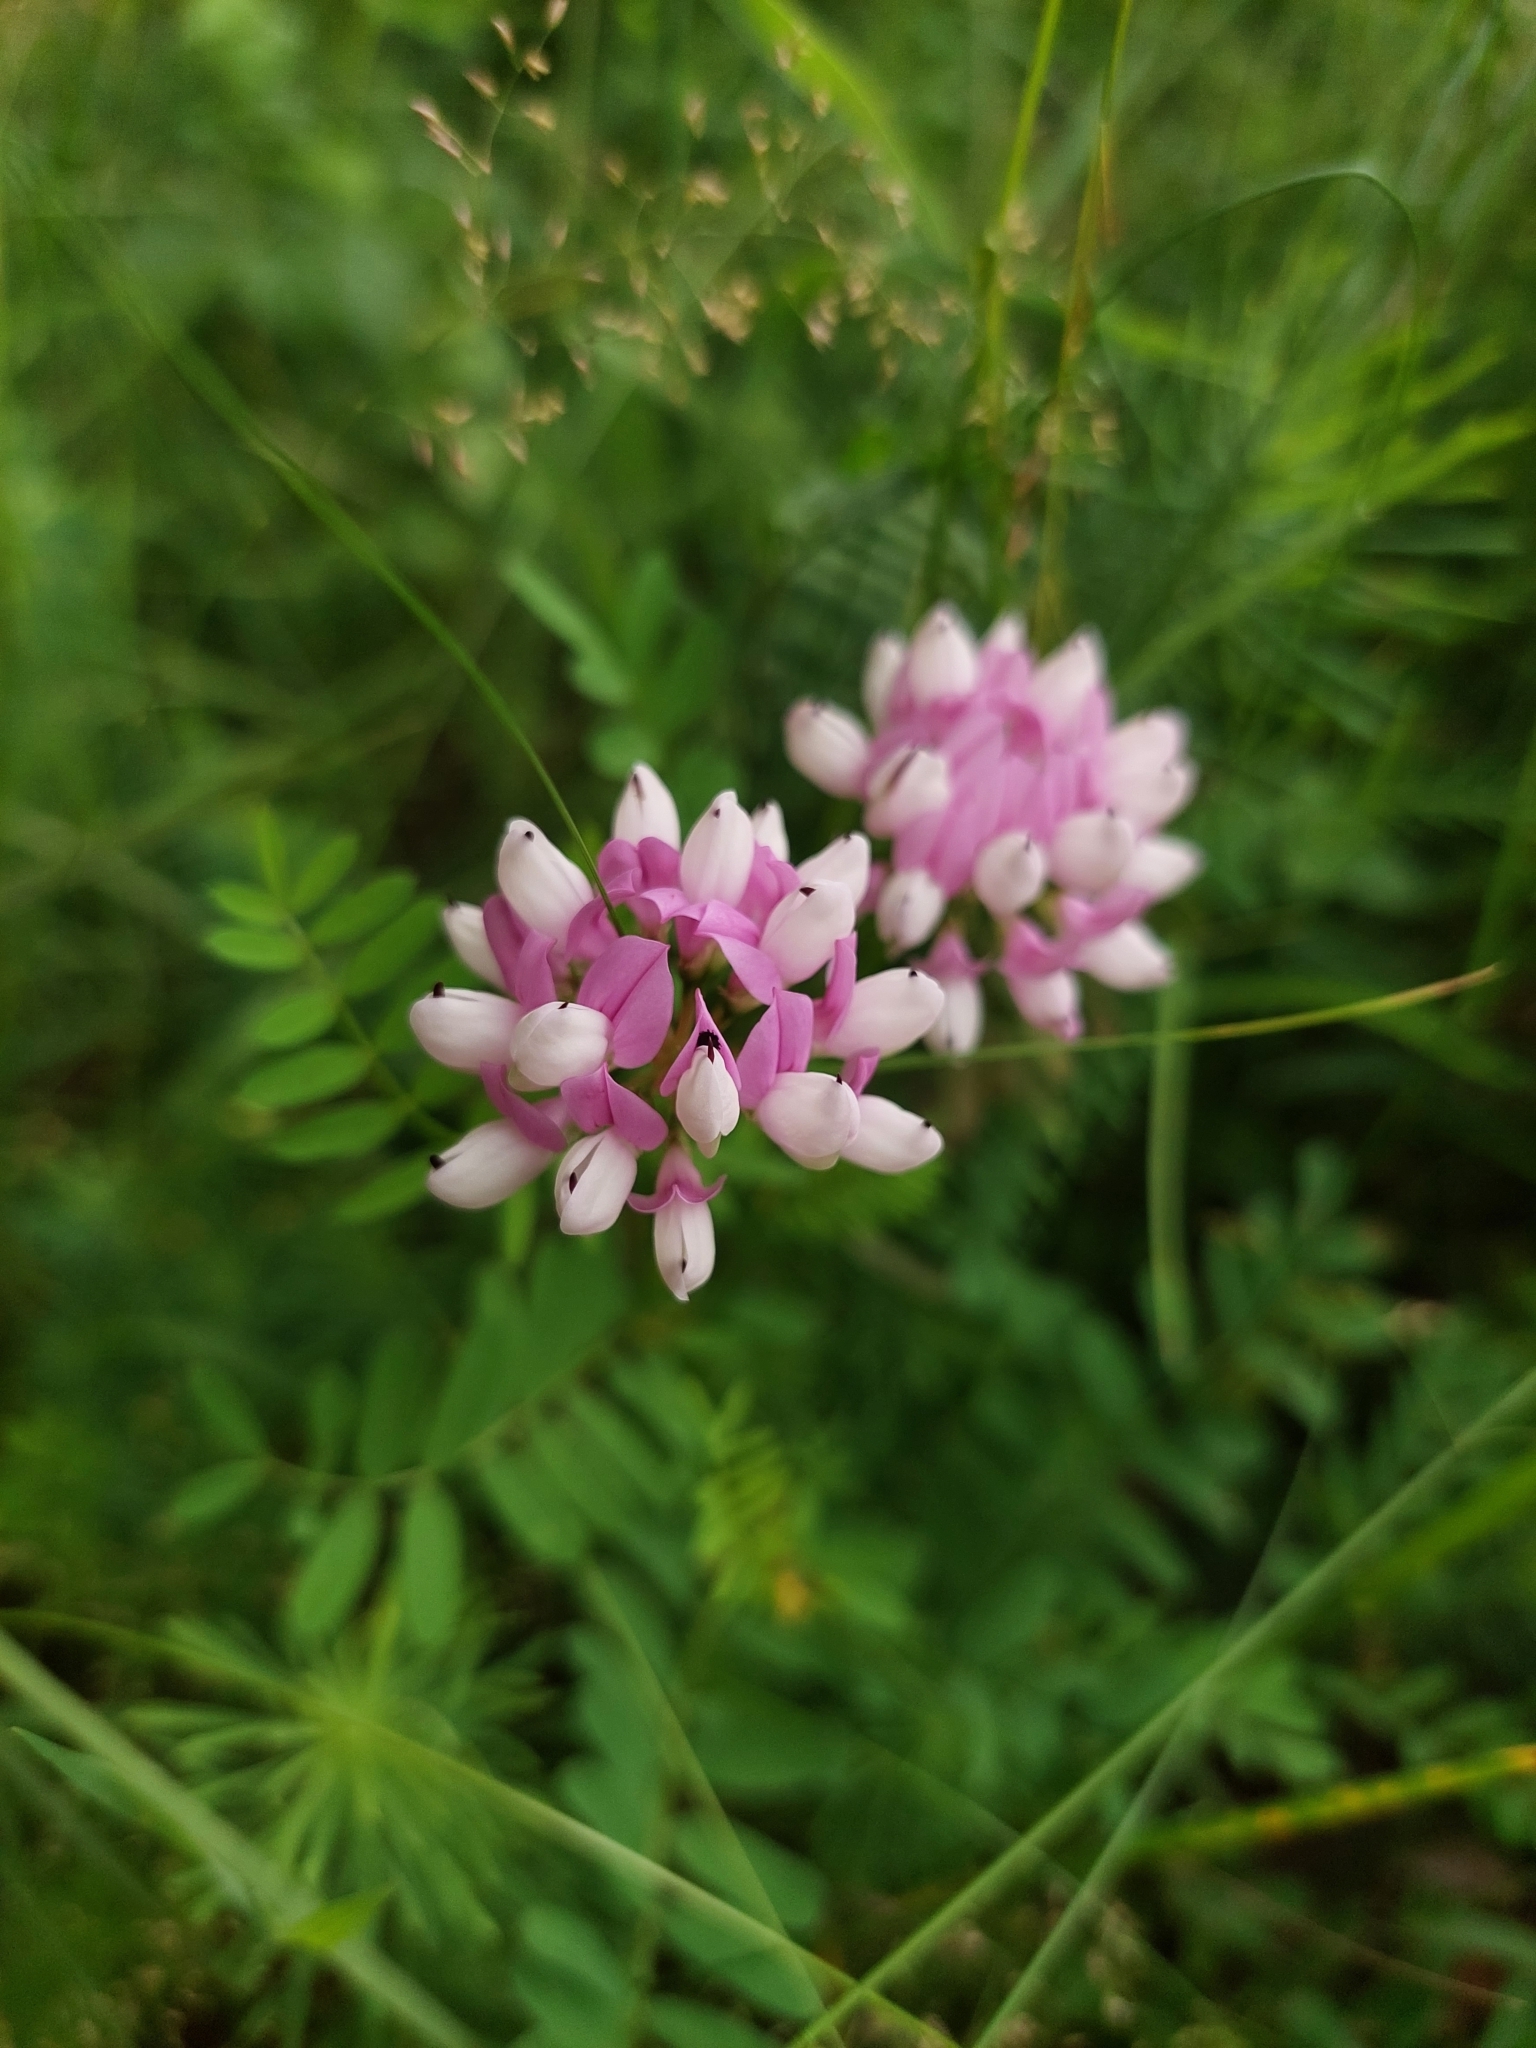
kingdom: Plantae
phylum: Tracheophyta
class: Magnoliopsida
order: Fabales
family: Fabaceae
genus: Coronilla
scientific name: Coronilla varia
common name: Crownvetch
